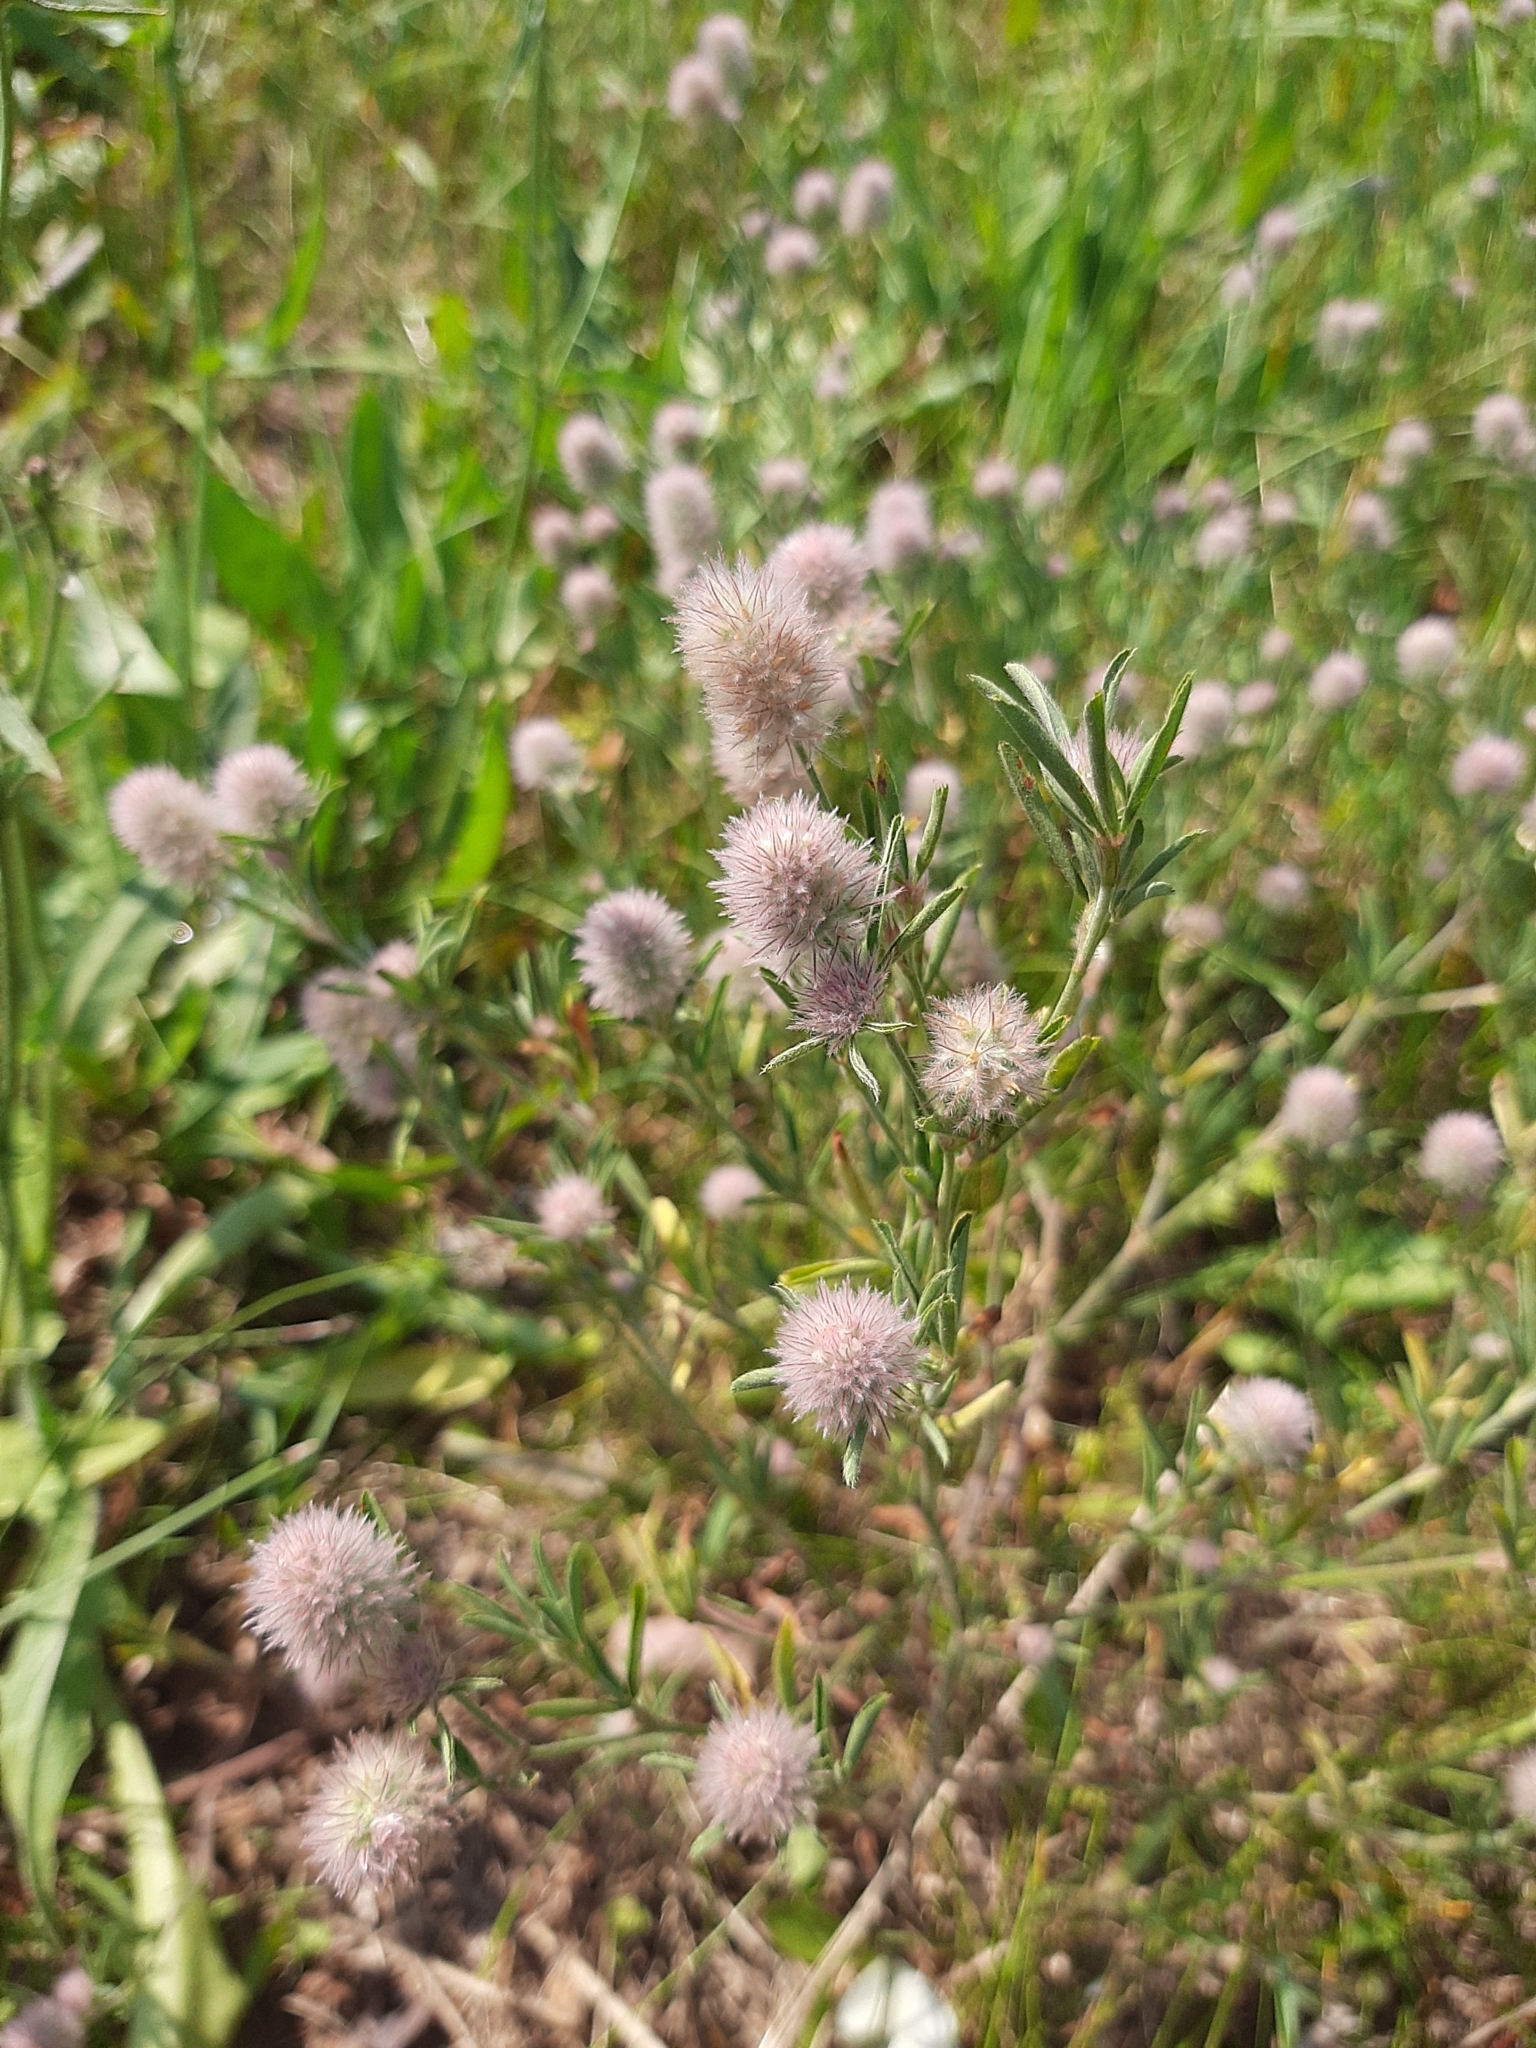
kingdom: Plantae
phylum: Tracheophyta
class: Magnoliopsida
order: Fabales
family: Fabaceae
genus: Trifolium
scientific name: Trifolium arvense
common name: Hare's-foot clover
